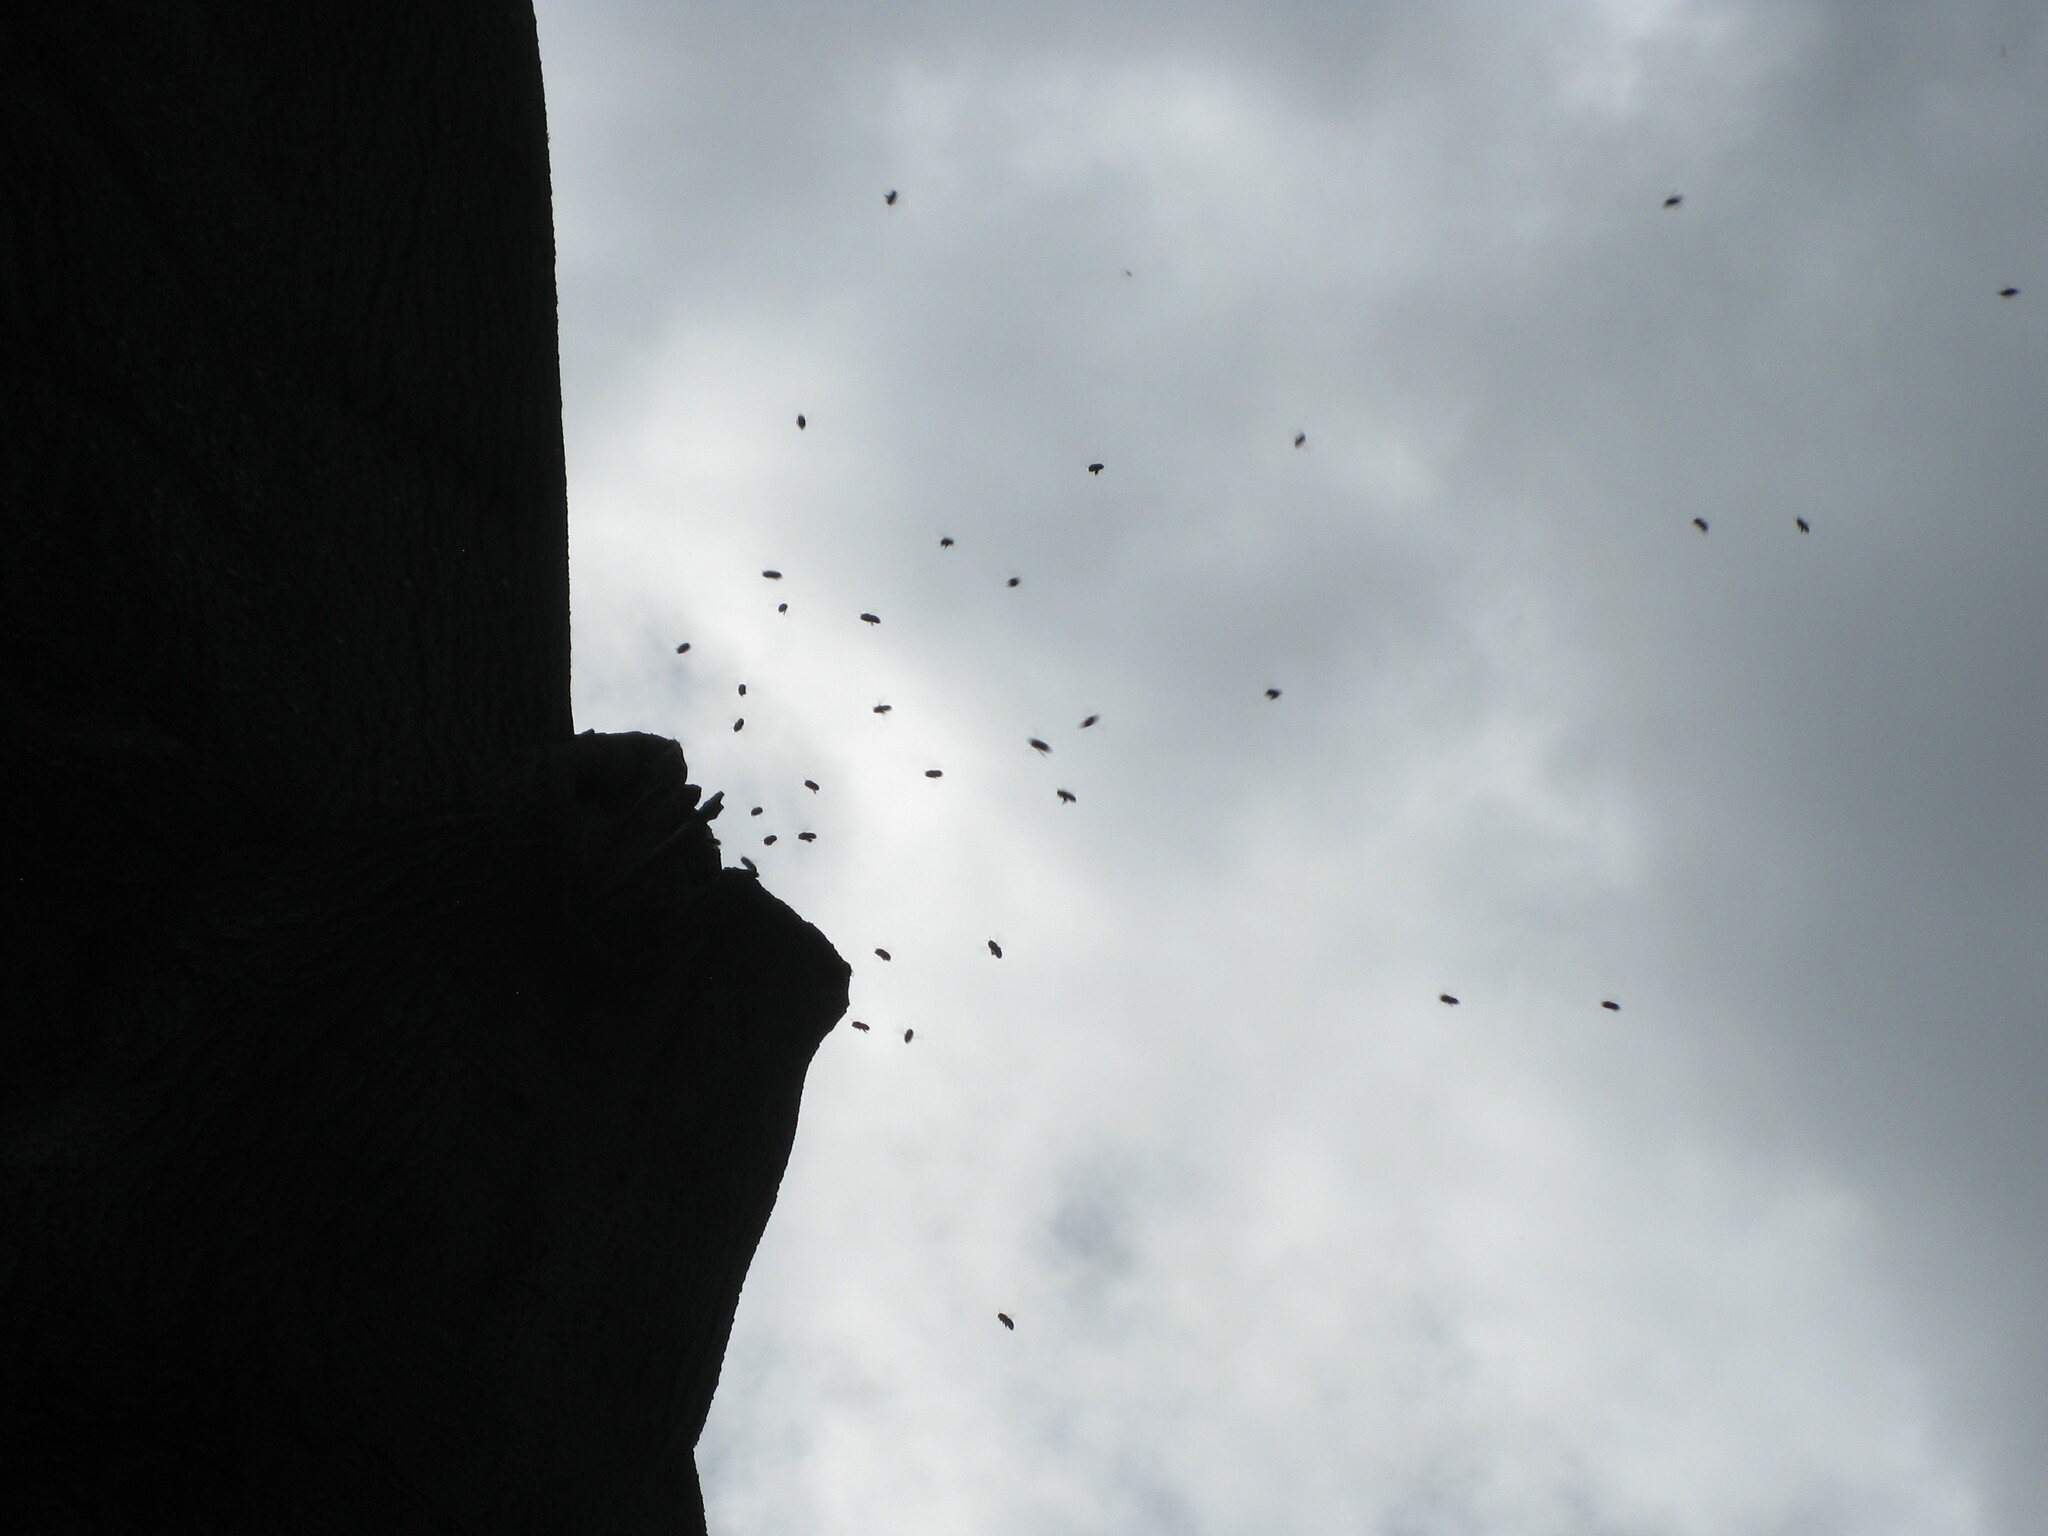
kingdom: Animalia
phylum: Arthropoda
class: Insecta
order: Hymenoptera
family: Apidae
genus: Apis
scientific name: Apis mellifera
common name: Honey bee
